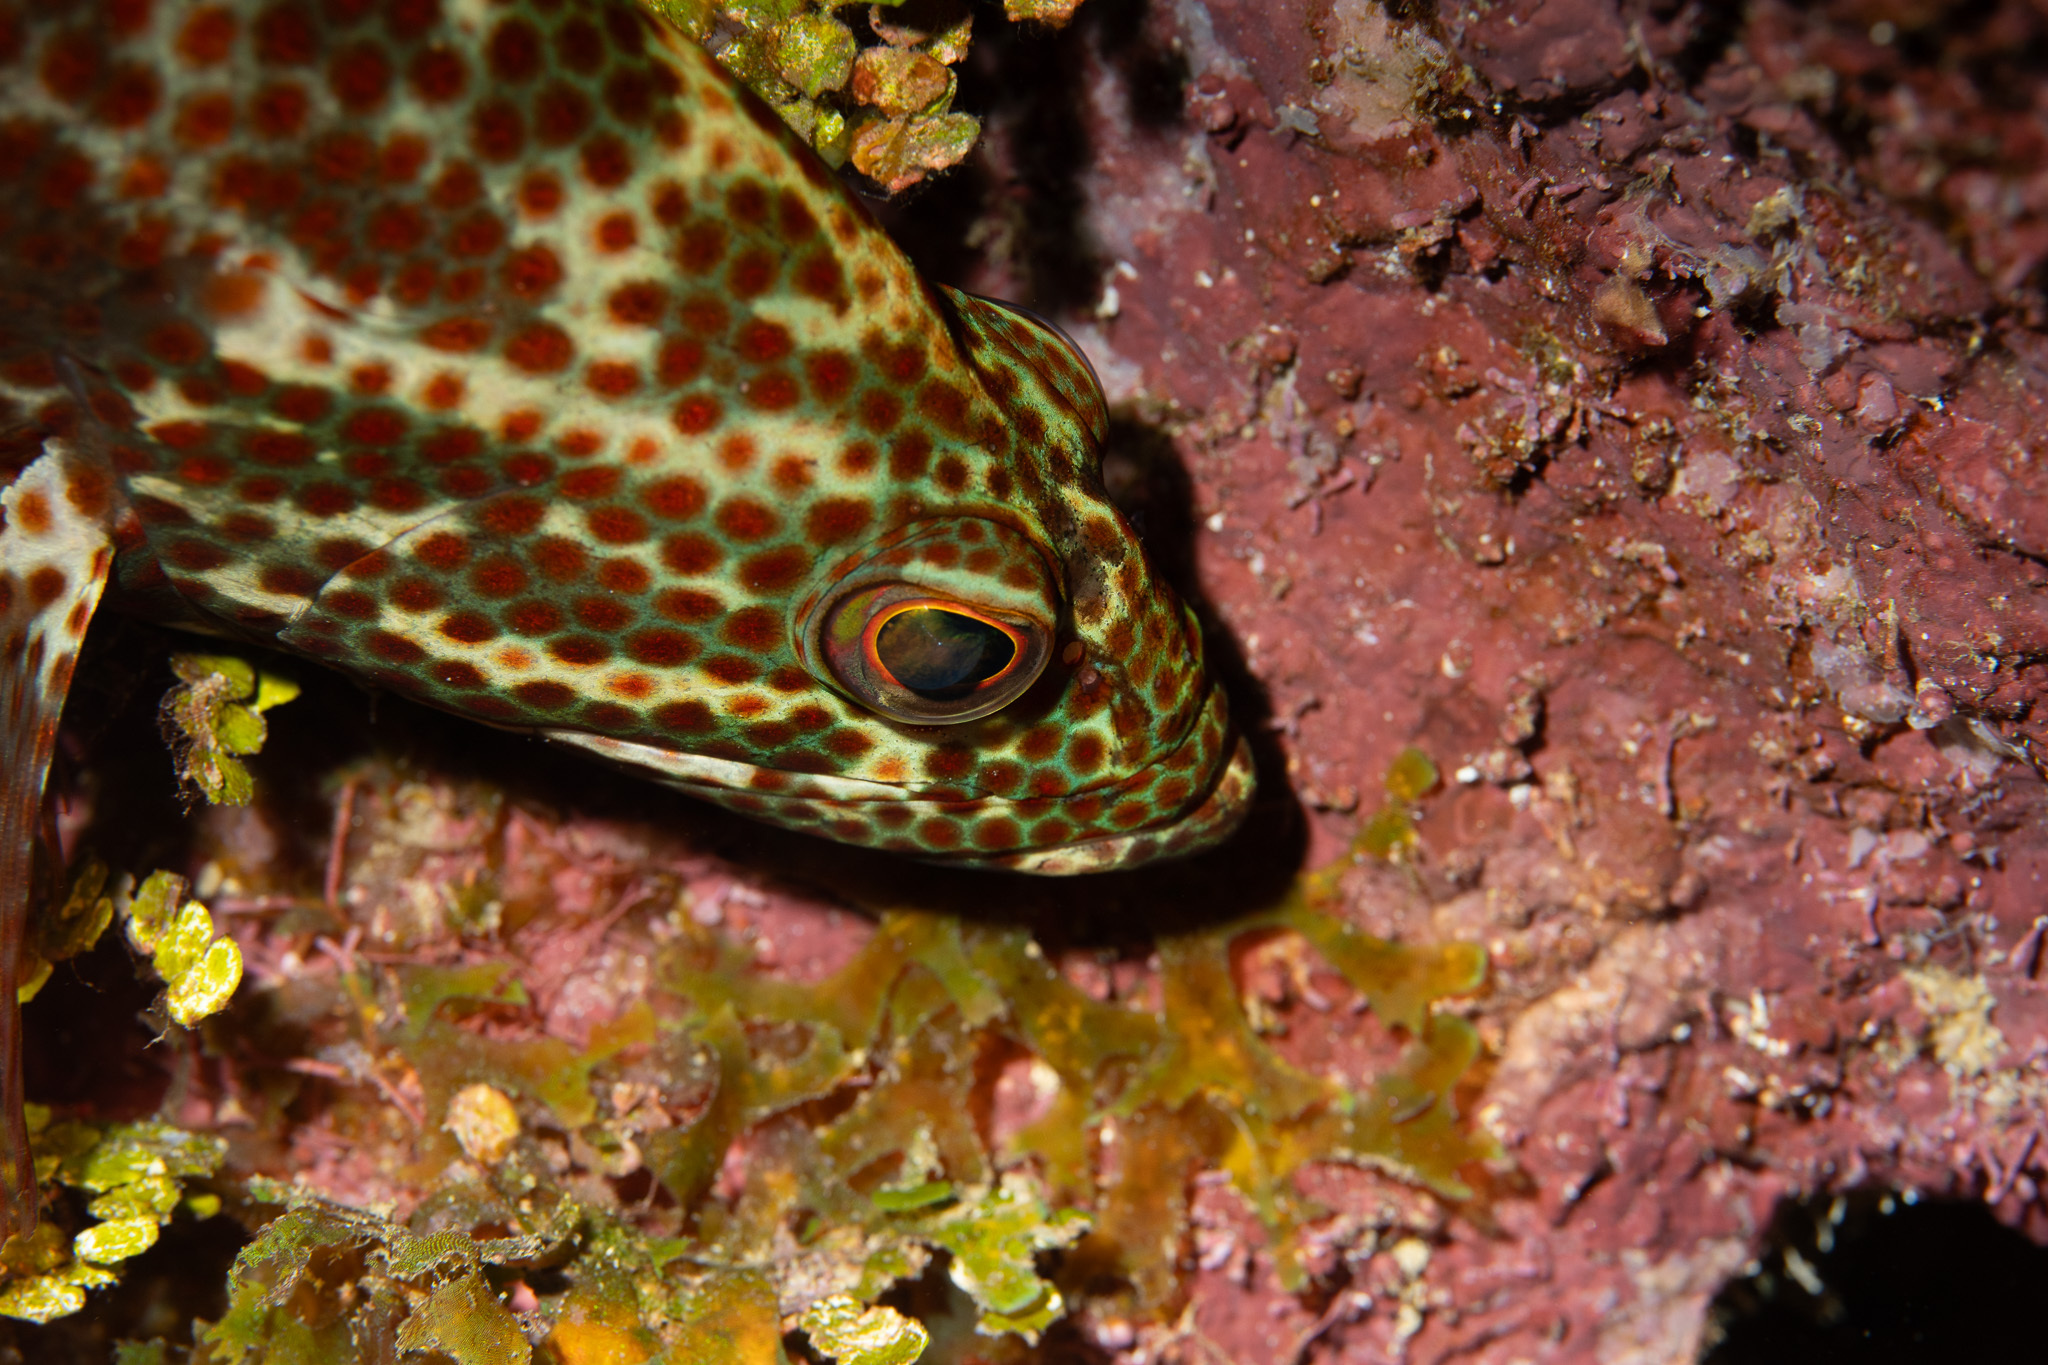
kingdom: Animalia
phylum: Chordata
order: Perciformes
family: Serranidae
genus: Cephalopholis
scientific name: Cephalopholis cruentata
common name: Graysby
